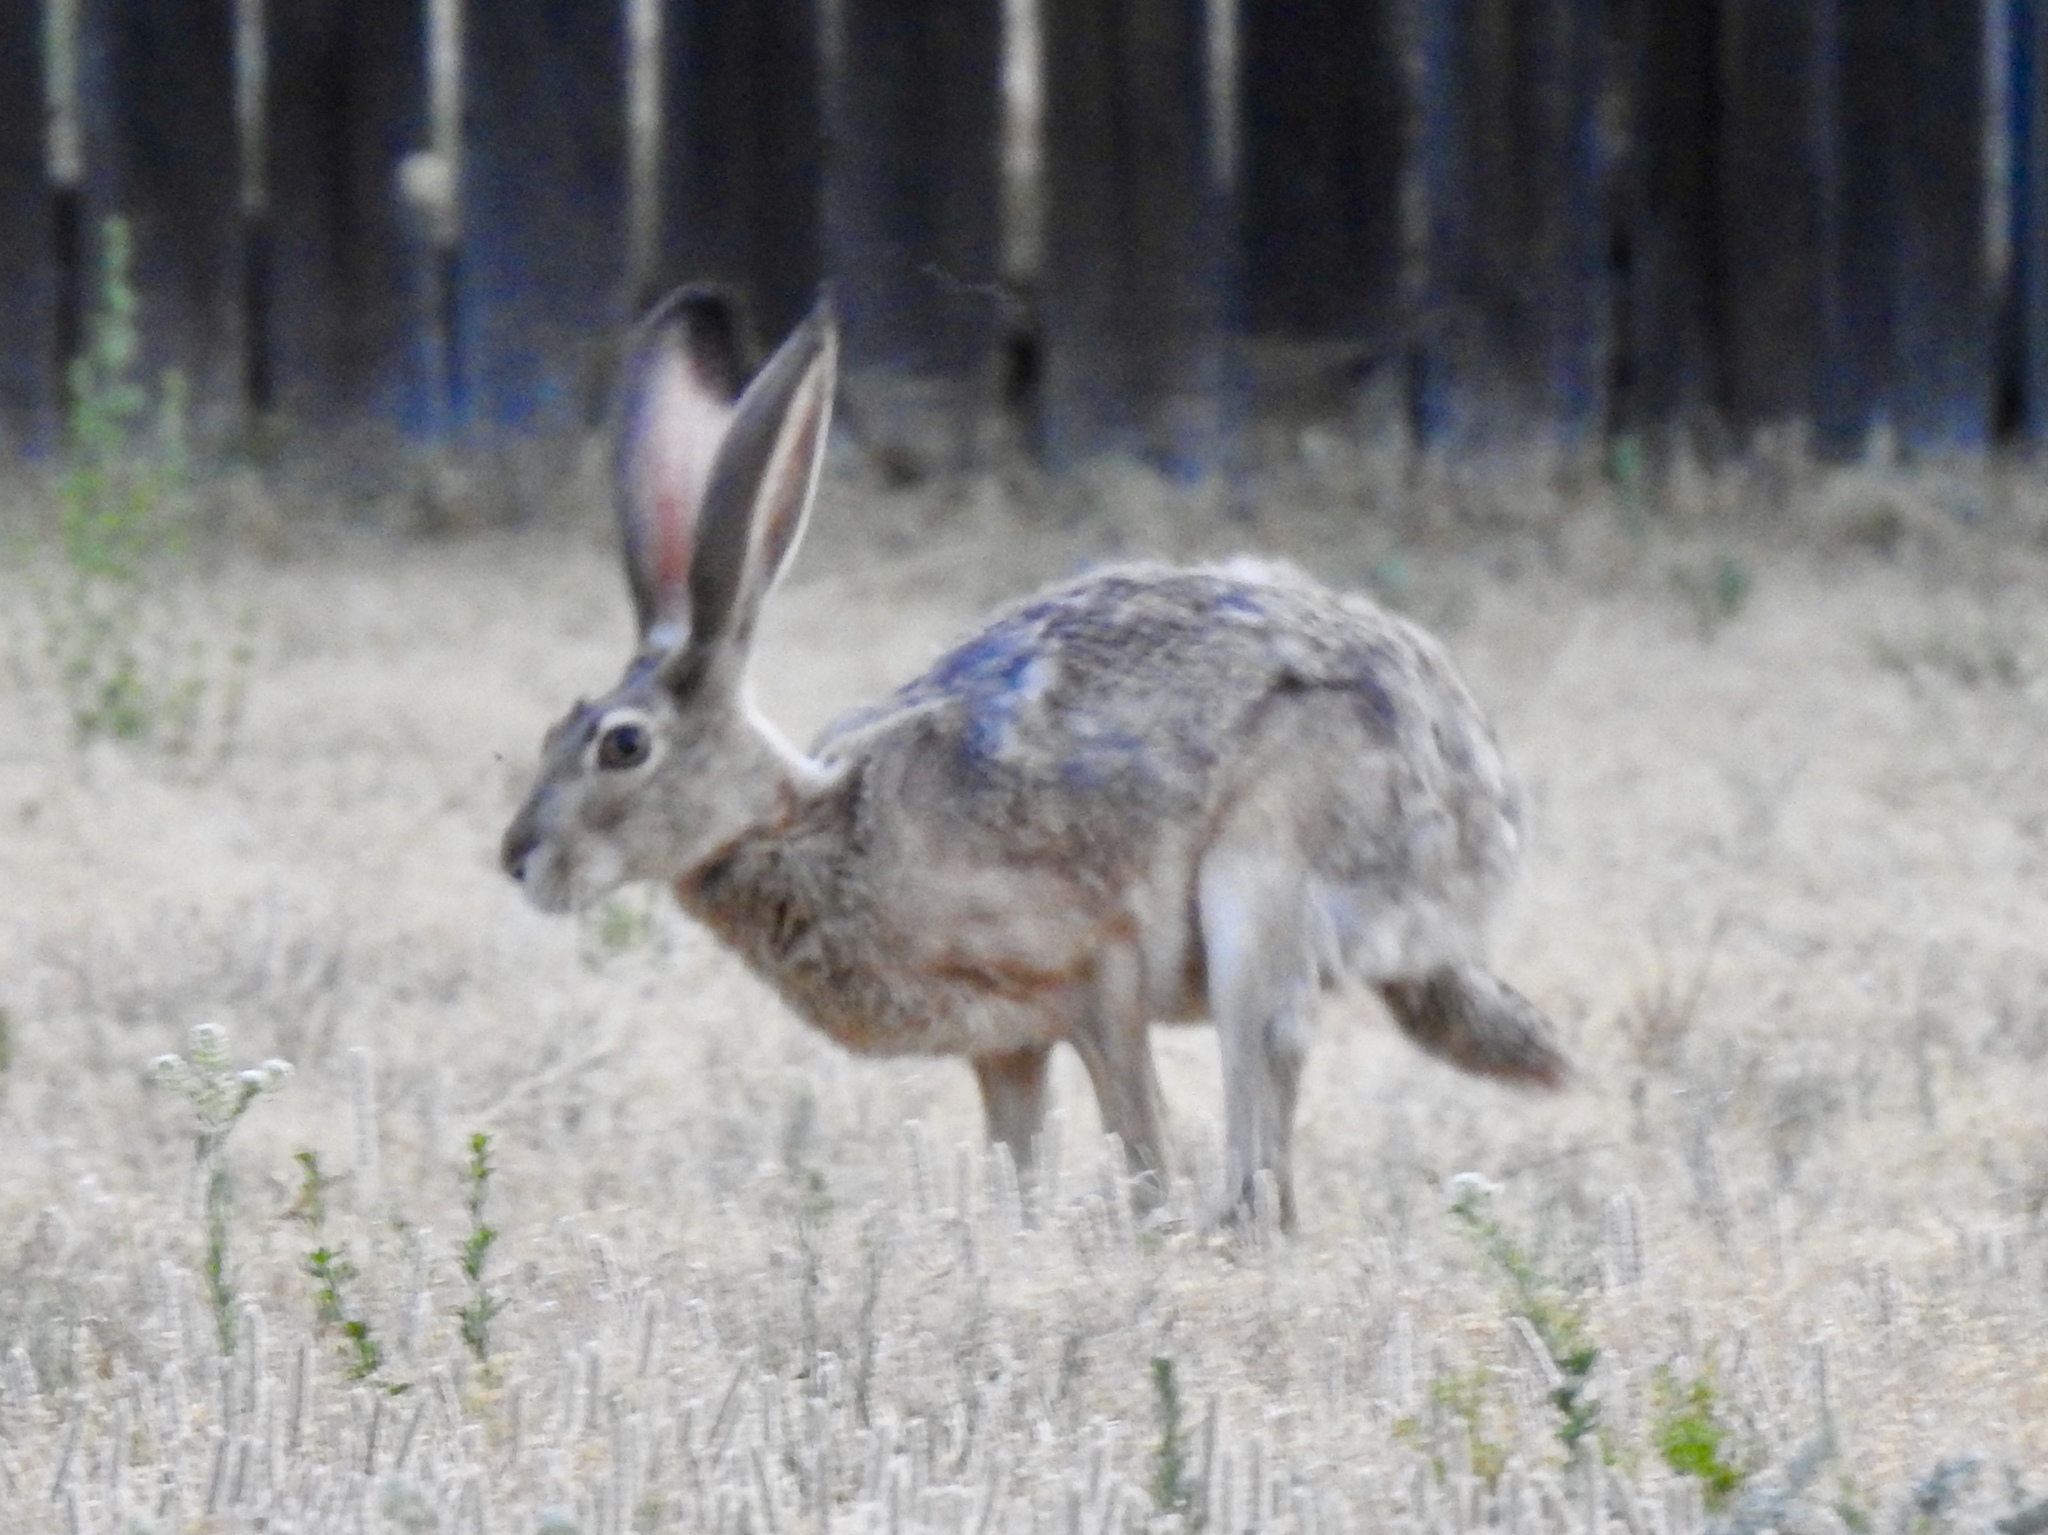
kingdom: Animalia
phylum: Chordata
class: Mammalia
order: Lagomorpha
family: Leporidae
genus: Lepus
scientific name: Lepus californicus
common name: Black-tailed jackrabbit
